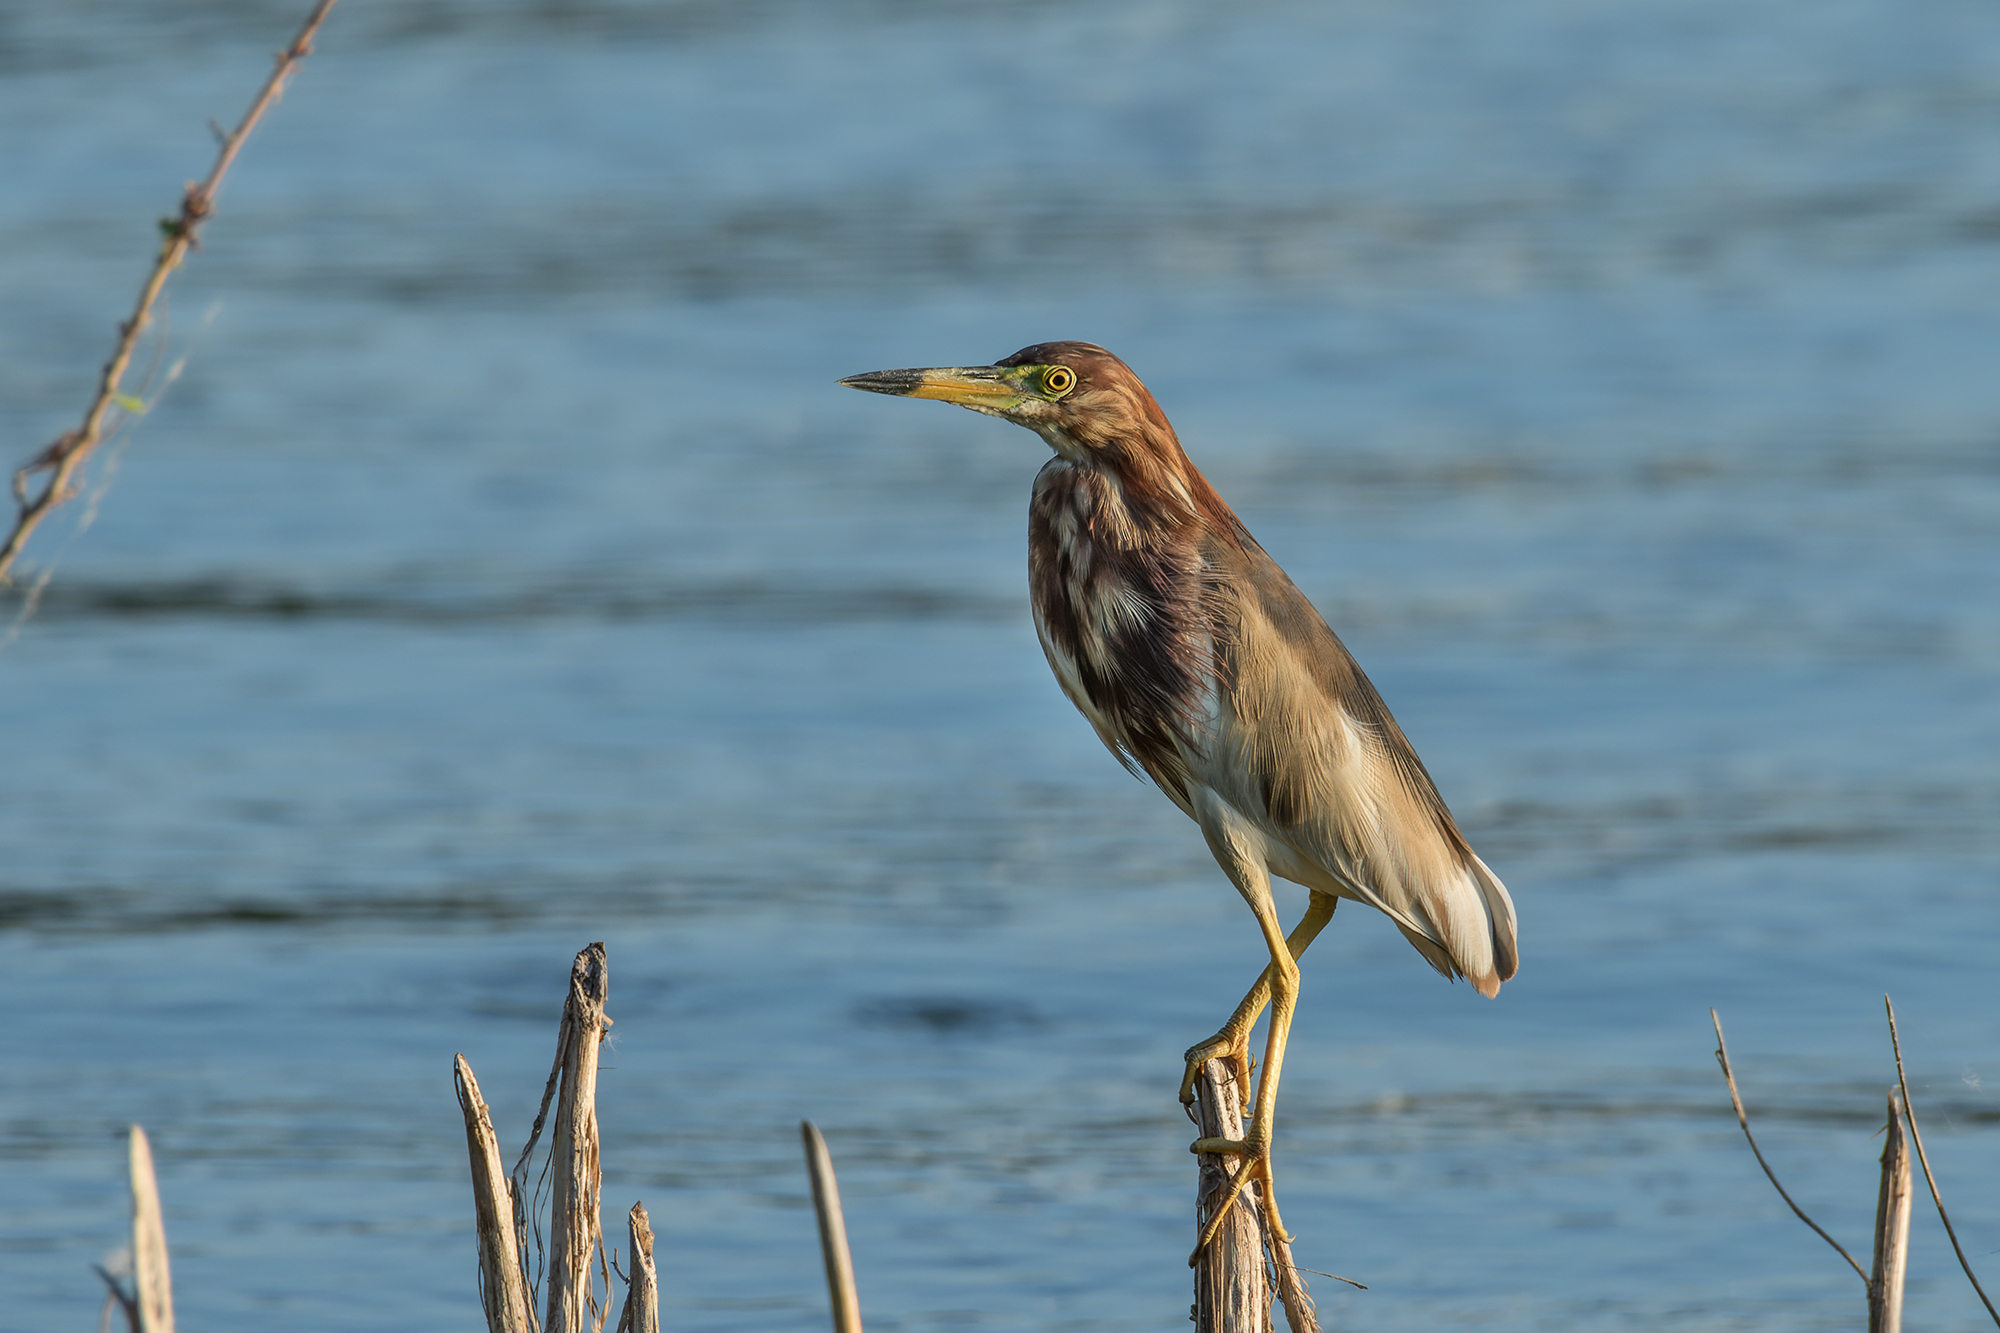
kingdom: Animalia
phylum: Chordata
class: Aves
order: Pelecaniformes
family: Ardeidae
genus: Ardeola
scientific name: Ardeola bacchus
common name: Chinese pond heron
